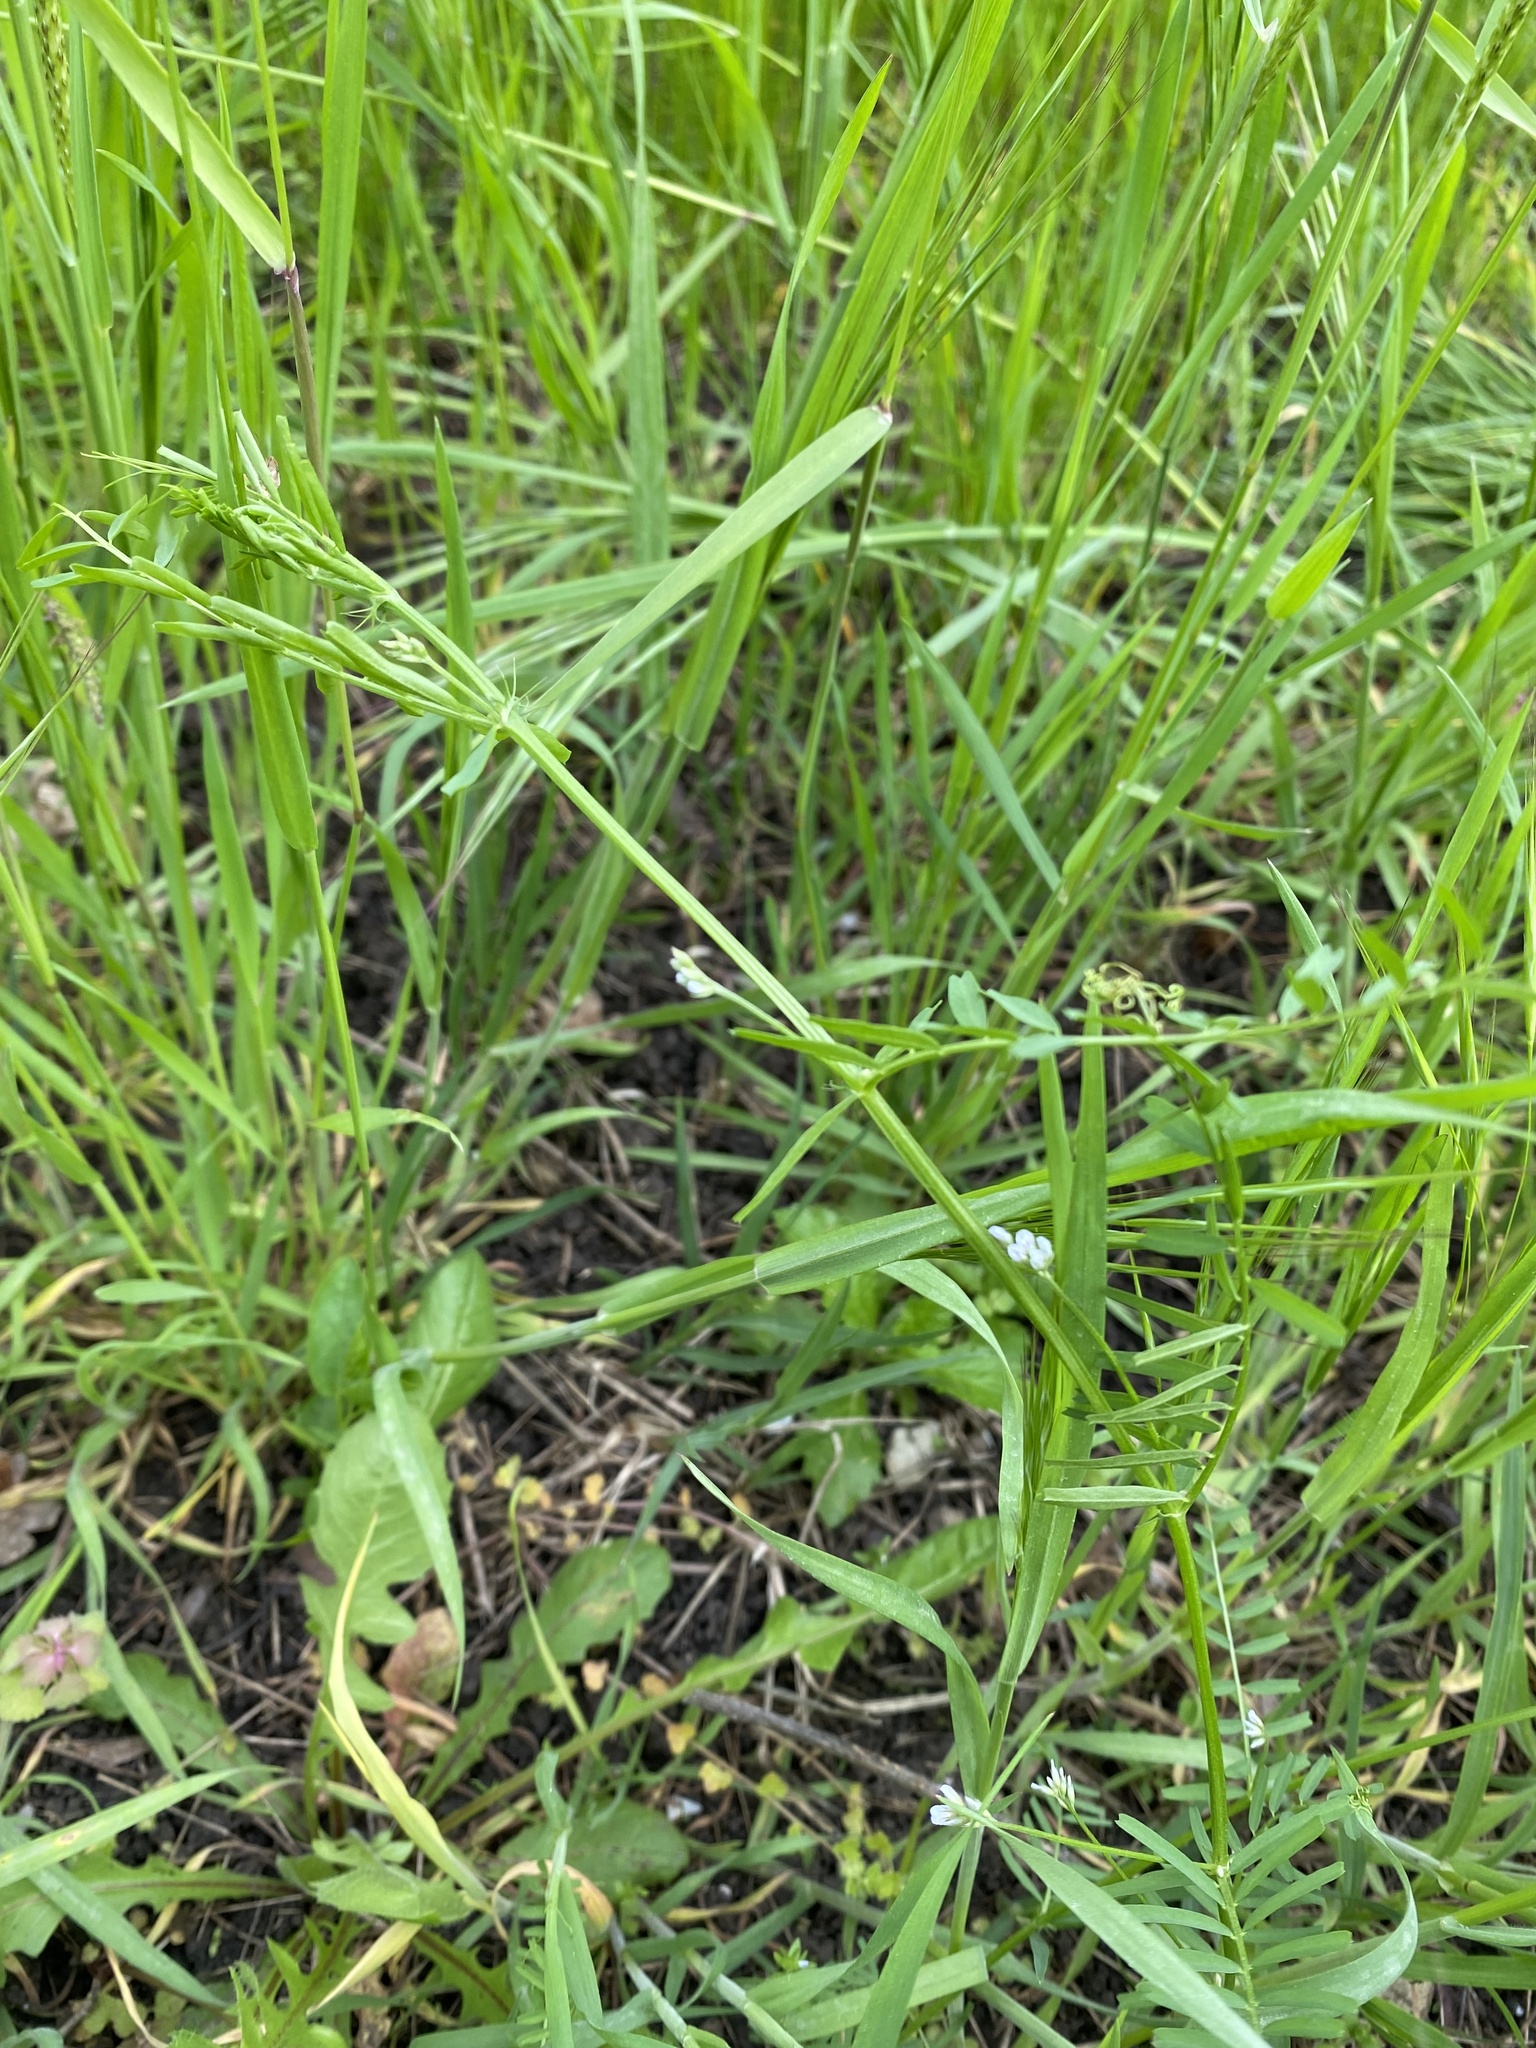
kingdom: Plantae
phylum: Tracheophyta
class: Magnoliopsida
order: Fabales
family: Fabaceae
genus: Vicia
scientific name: Vicia tetrasperma
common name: Smooth tare
